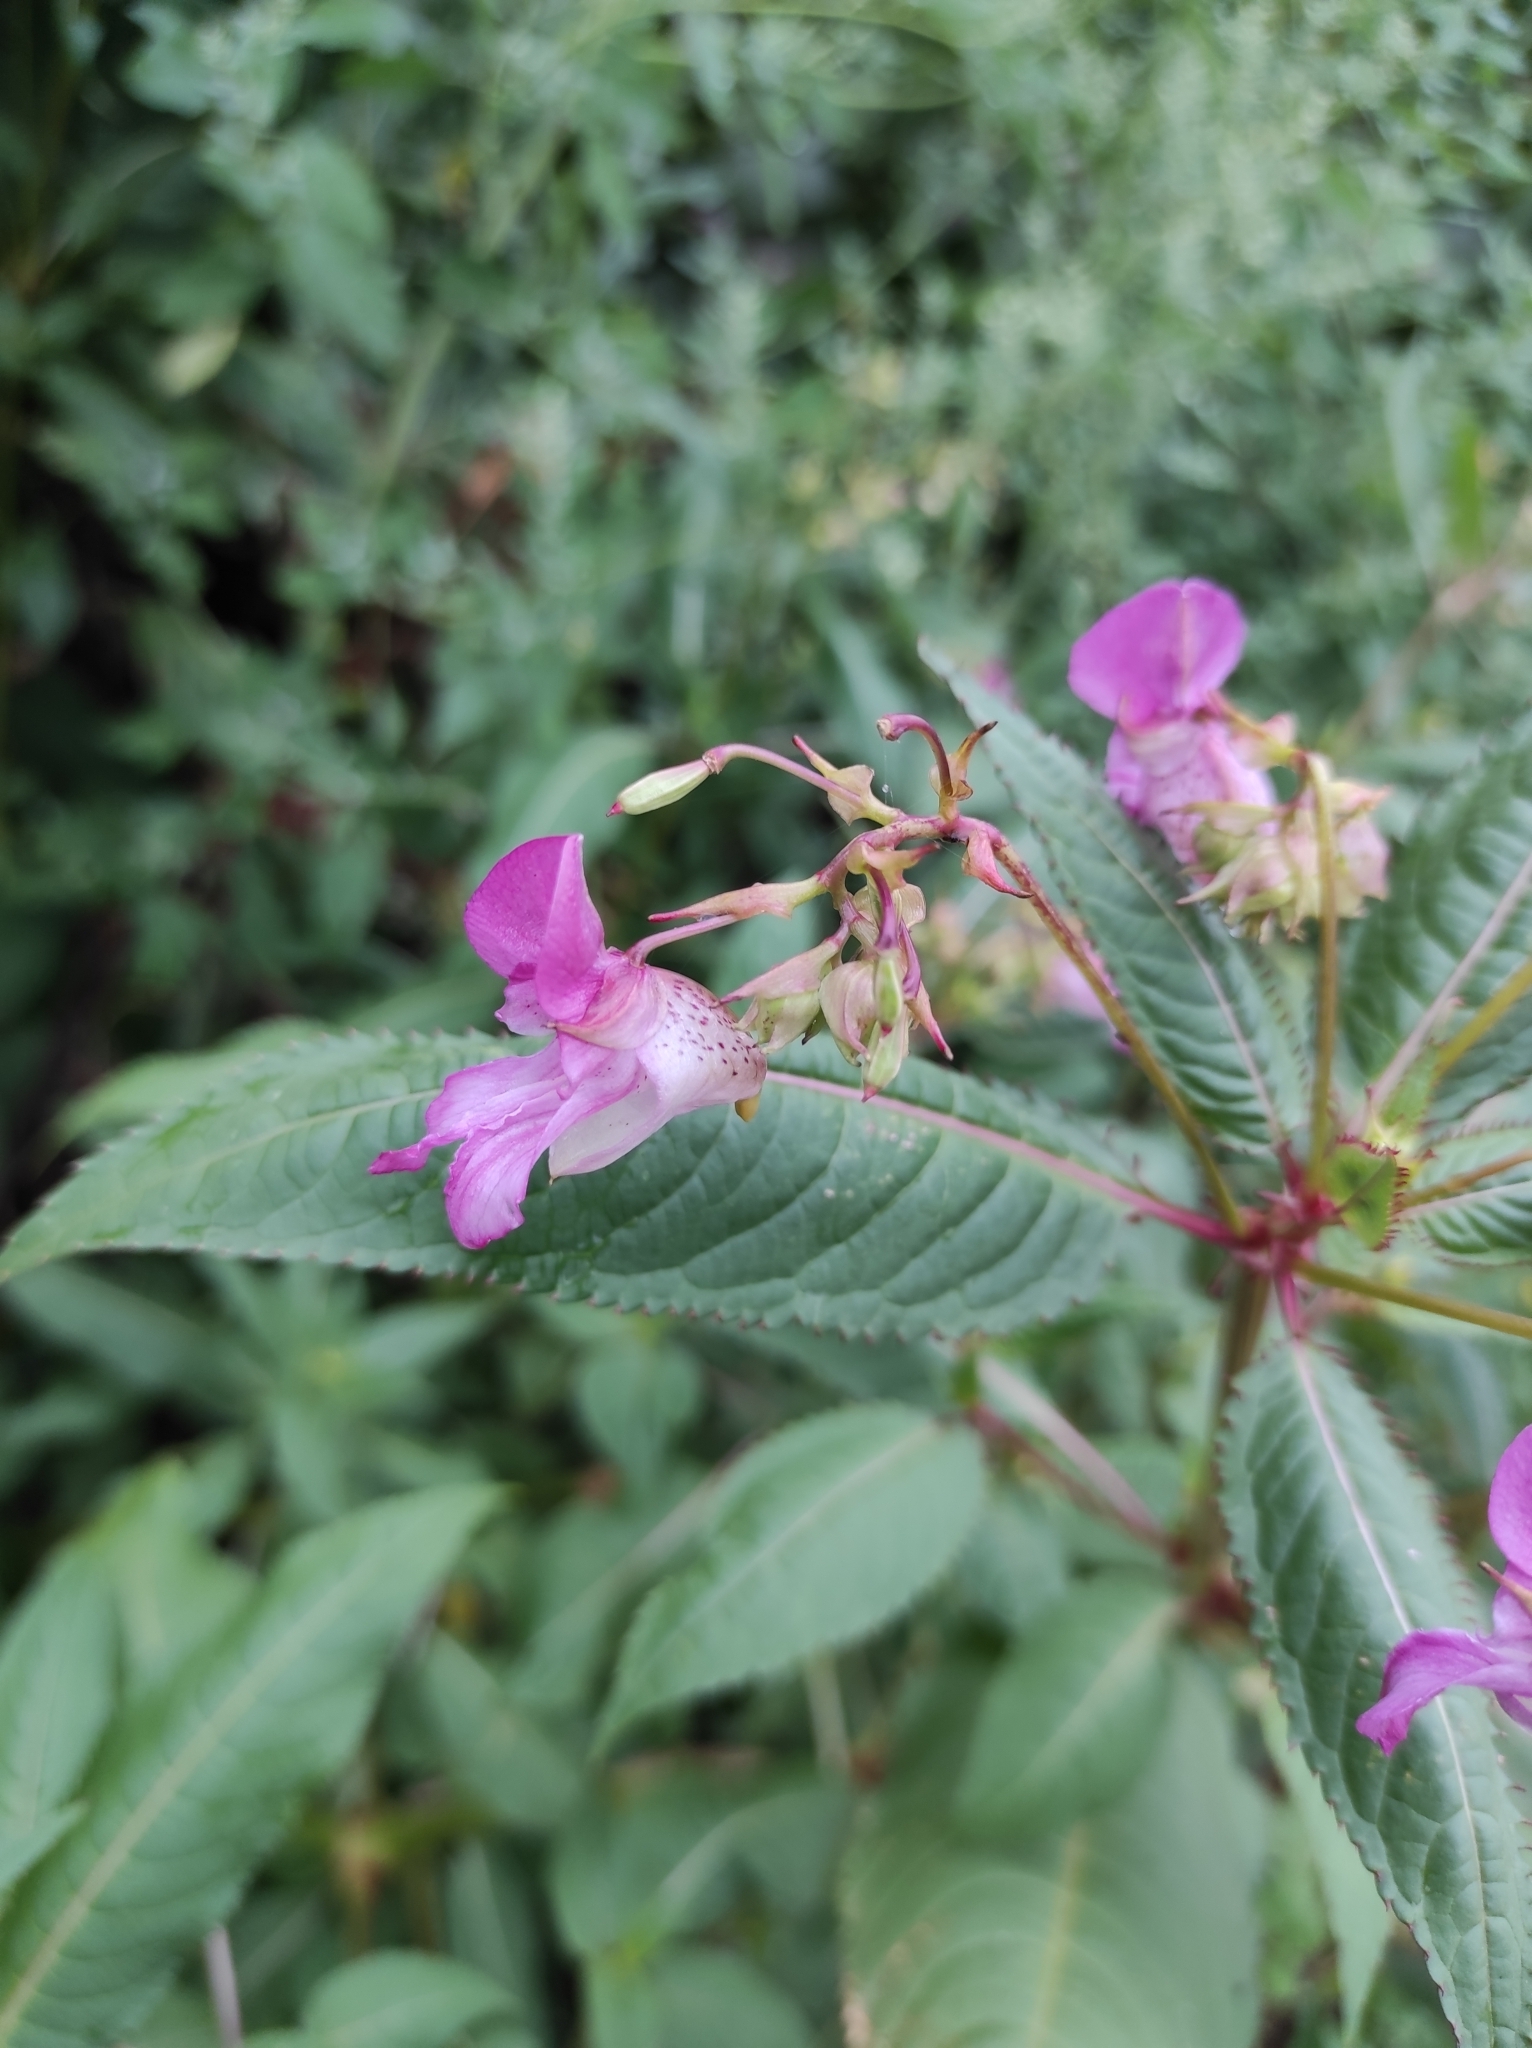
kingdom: Plantae
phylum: Tracheophyta
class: Magnoliopsida
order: Ericales
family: Balsaminaceae
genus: Impatiens
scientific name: Impatiens glandulifera
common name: Himalayan balsam
